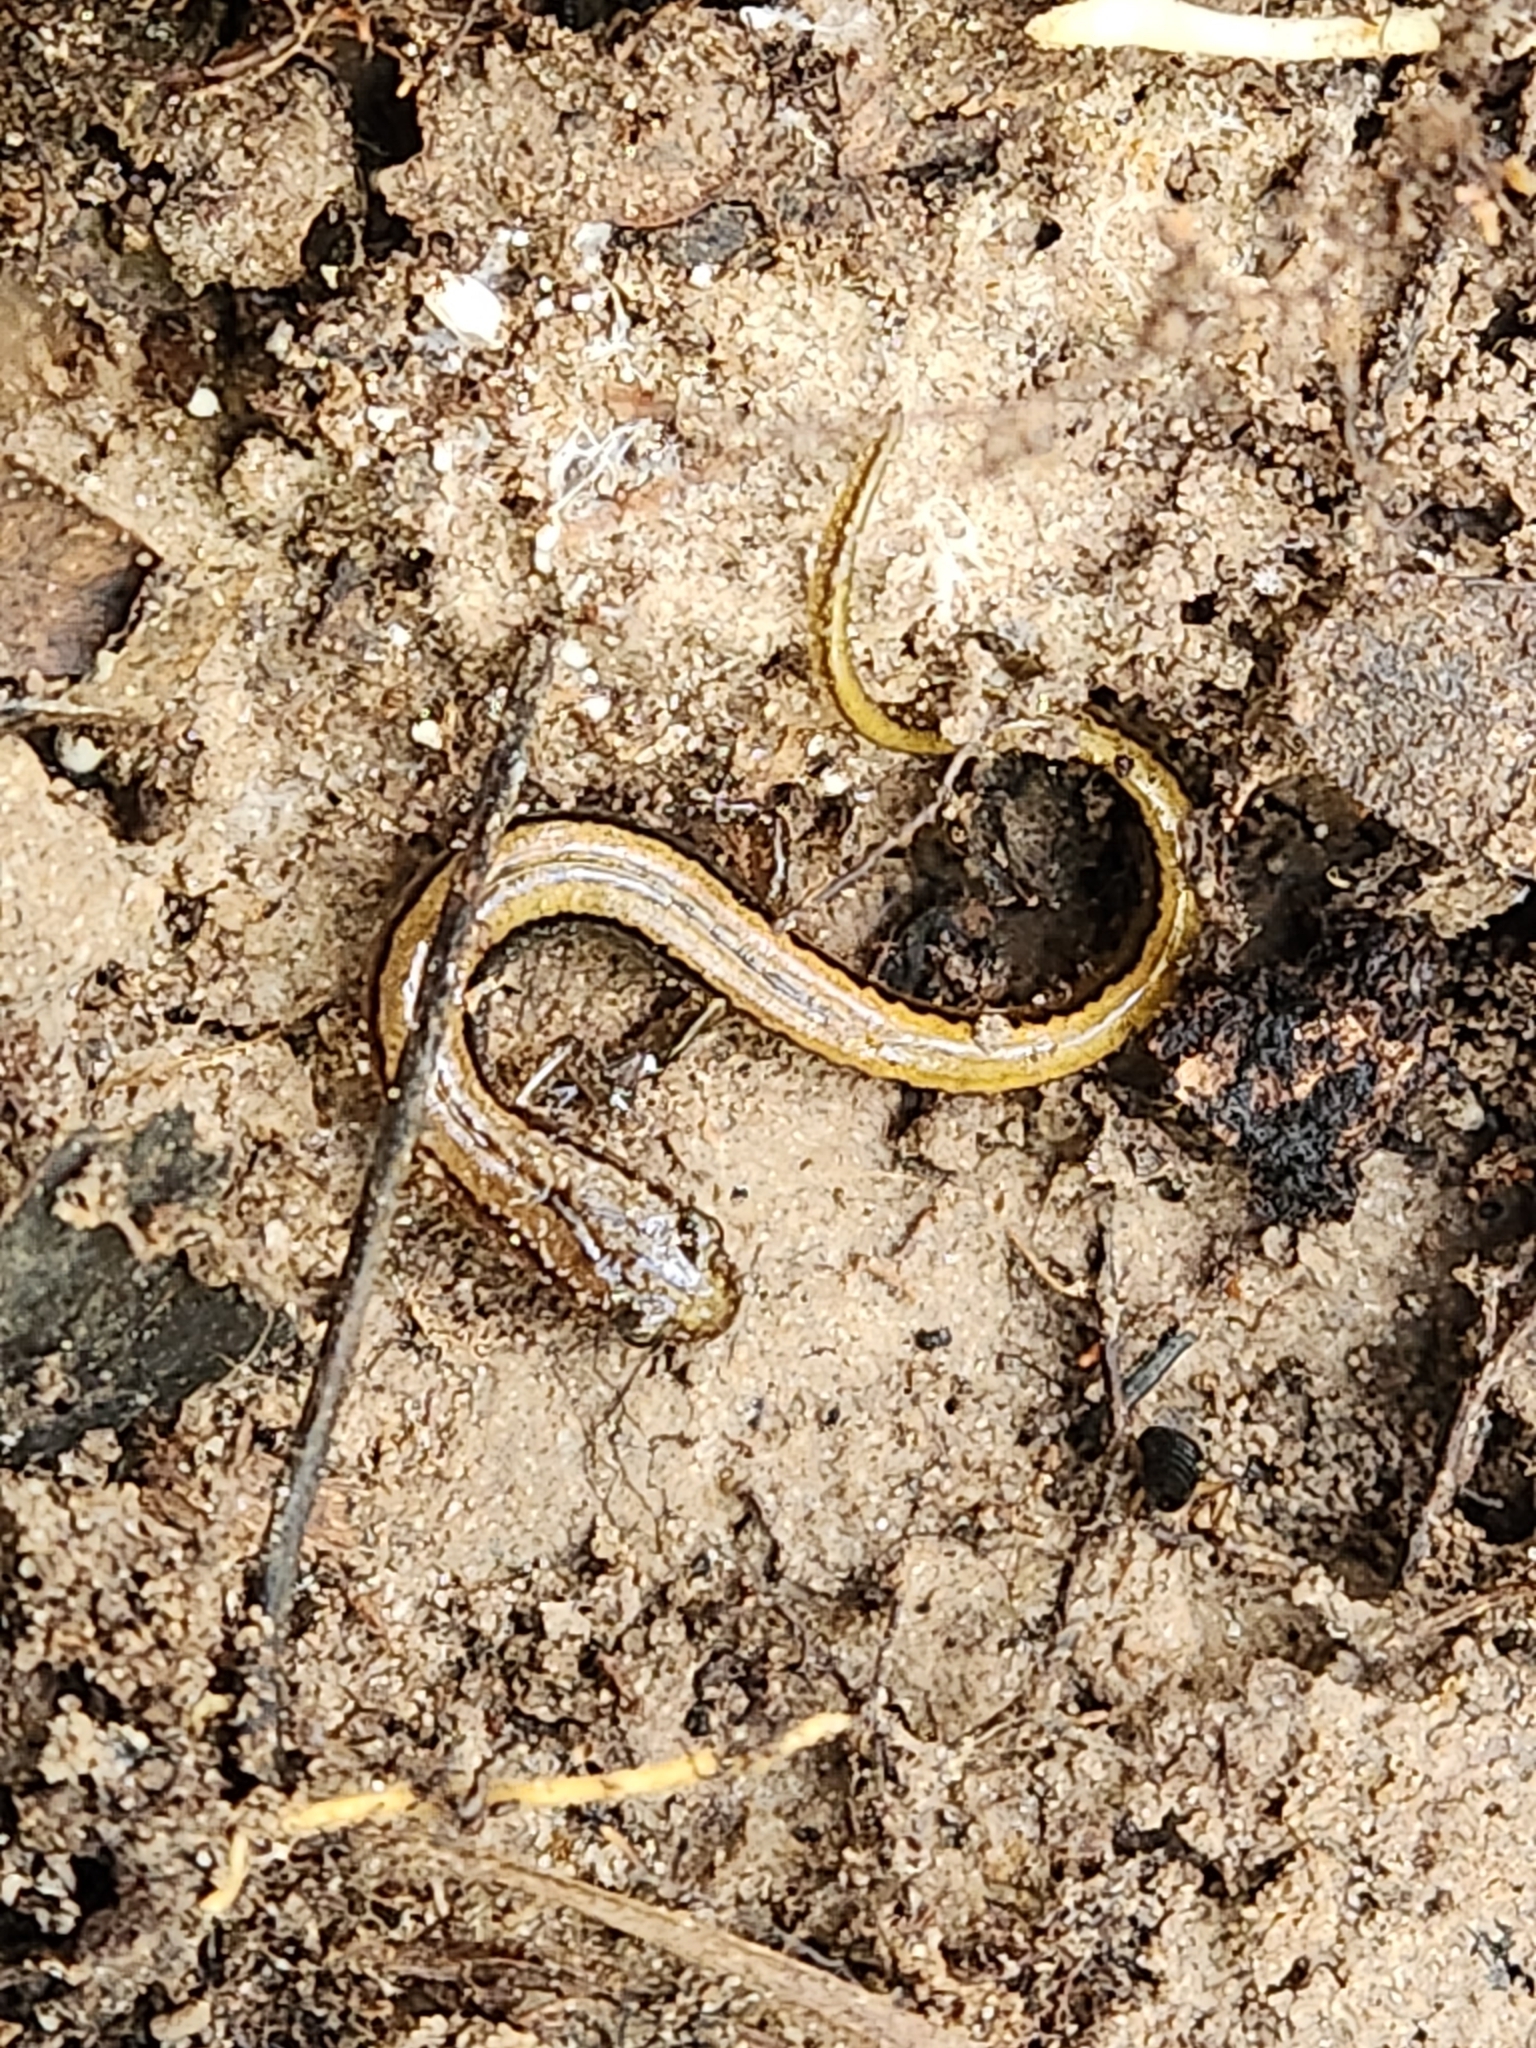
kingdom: Animalia
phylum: Chordata
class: Amphibia
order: Caudata
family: Plethodontidae
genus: Eurycea
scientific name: Eurycea paludicola
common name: Western dwarf salamander
